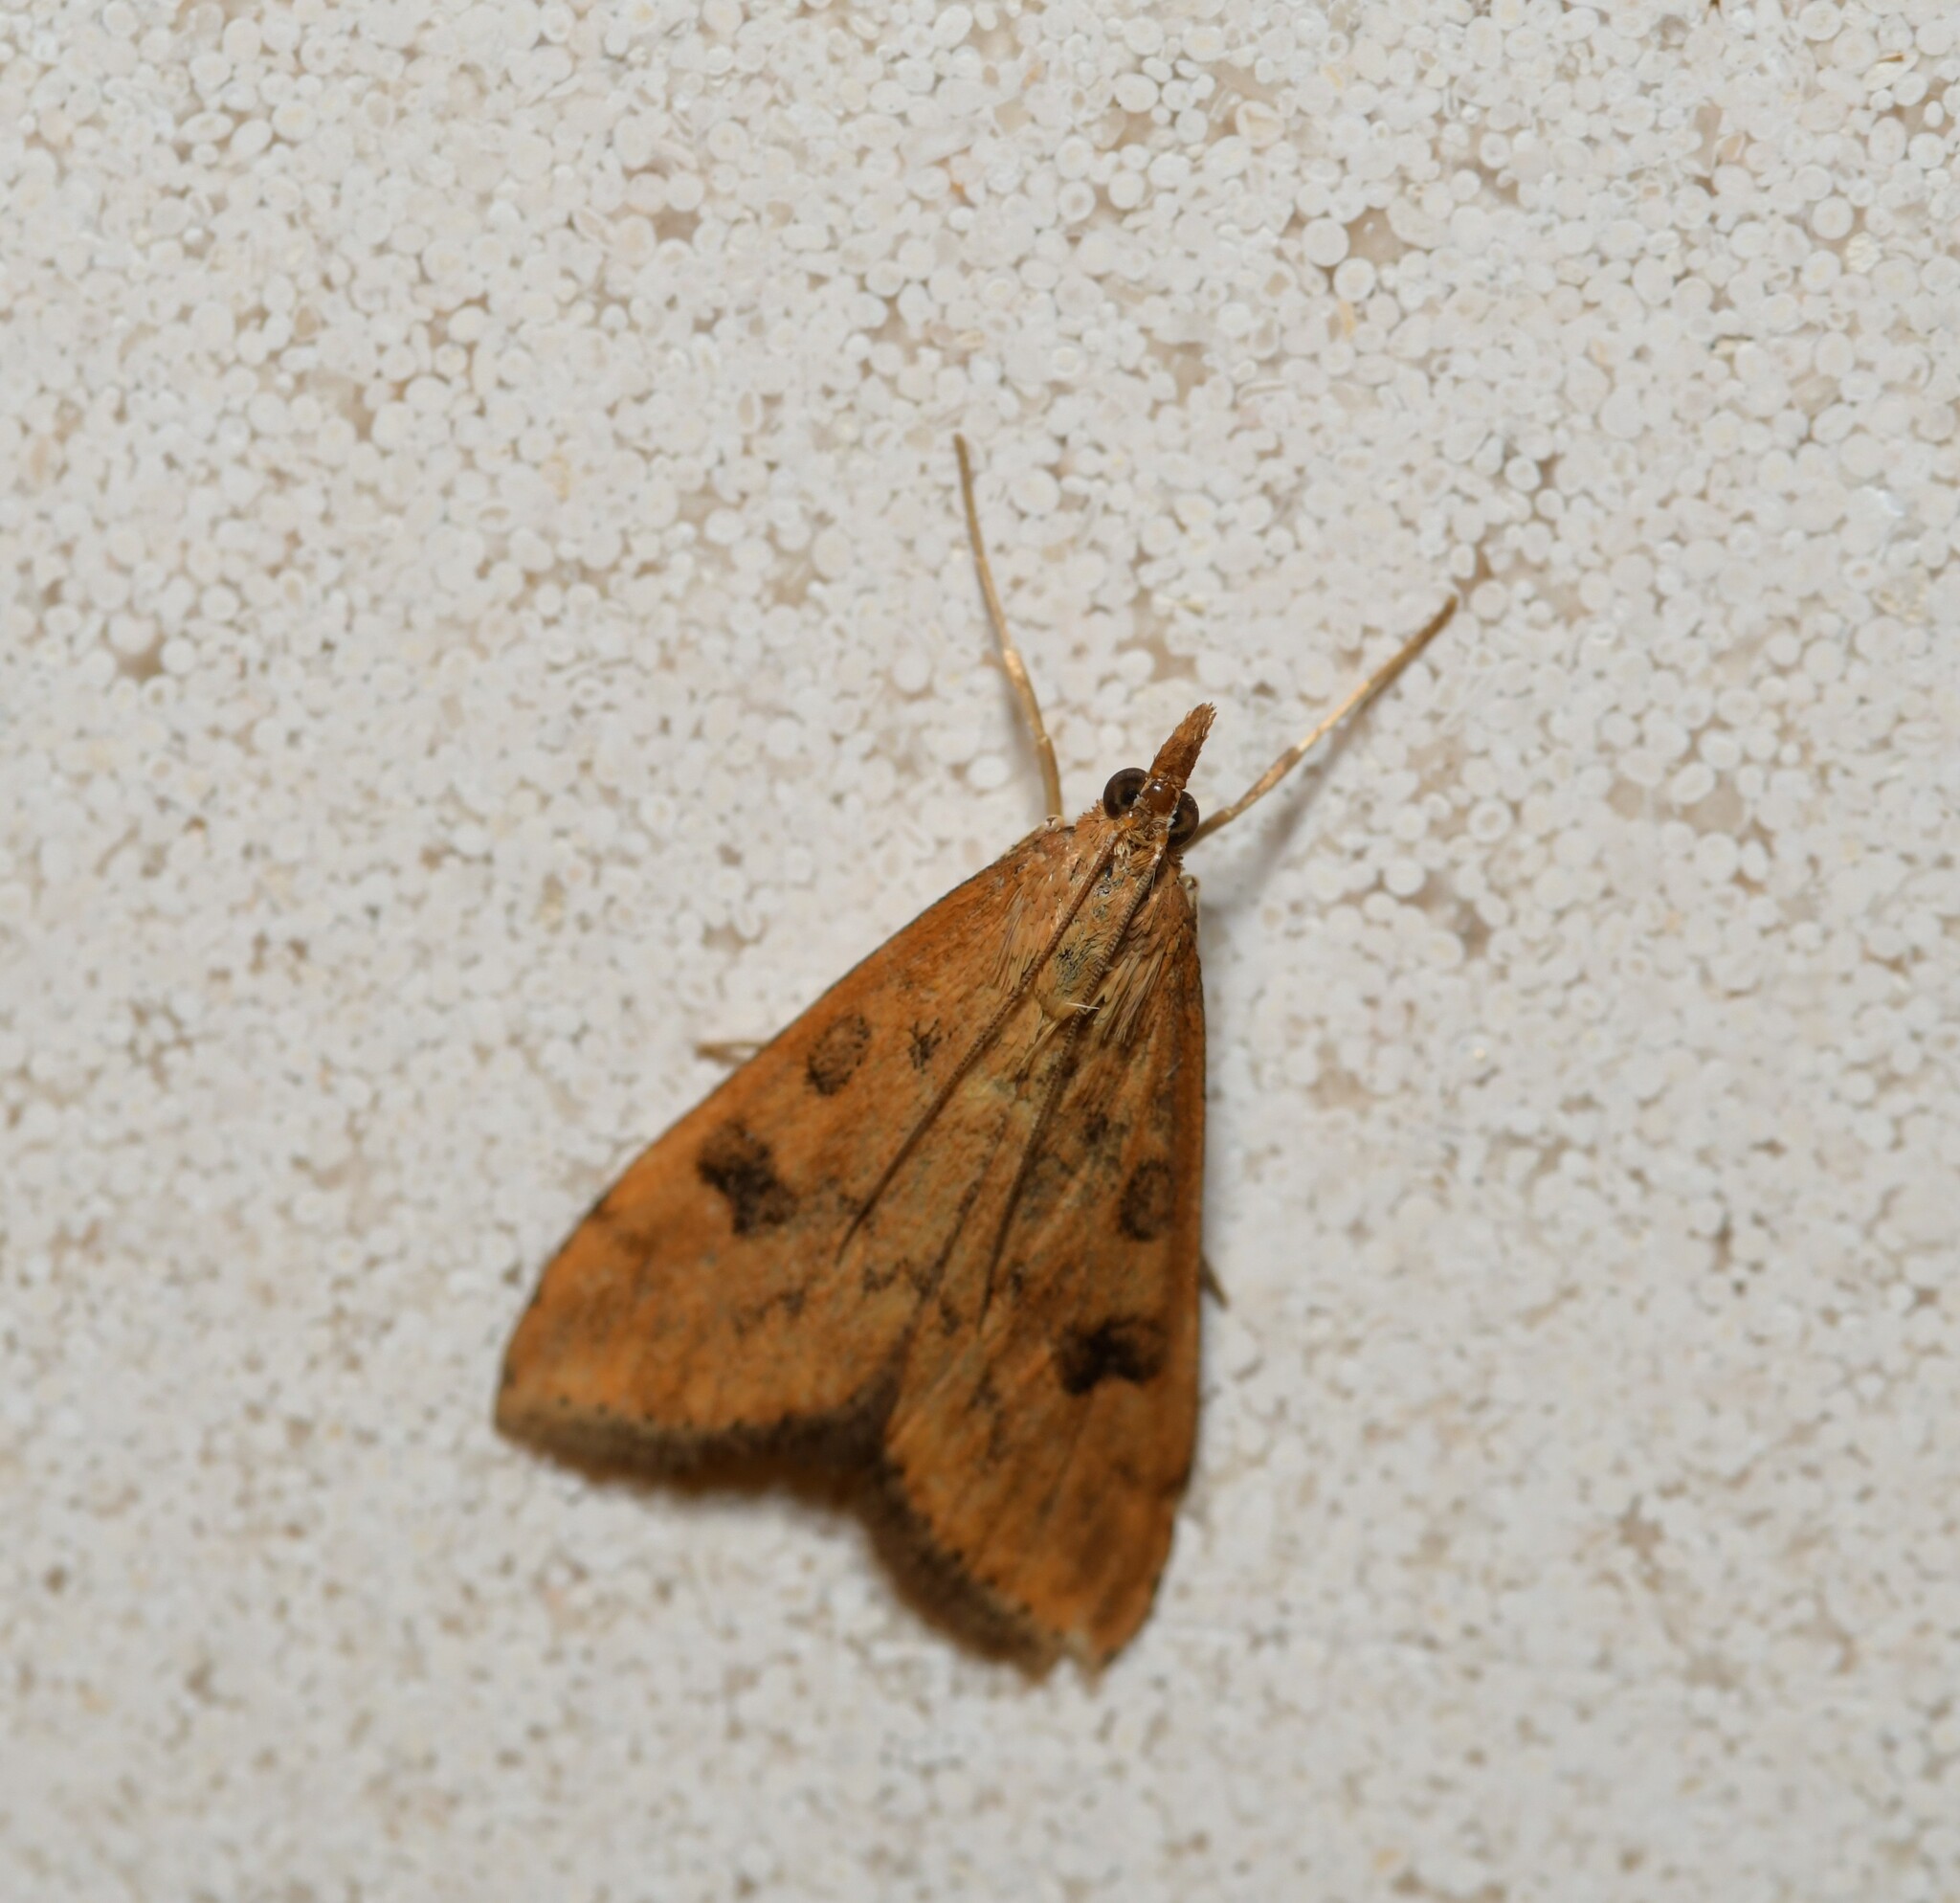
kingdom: Animalia
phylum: Arthropoda
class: Insecta
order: Lepidoptera
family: Crambidae
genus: Udea
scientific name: Udea ferrugalis
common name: Rusty dot
